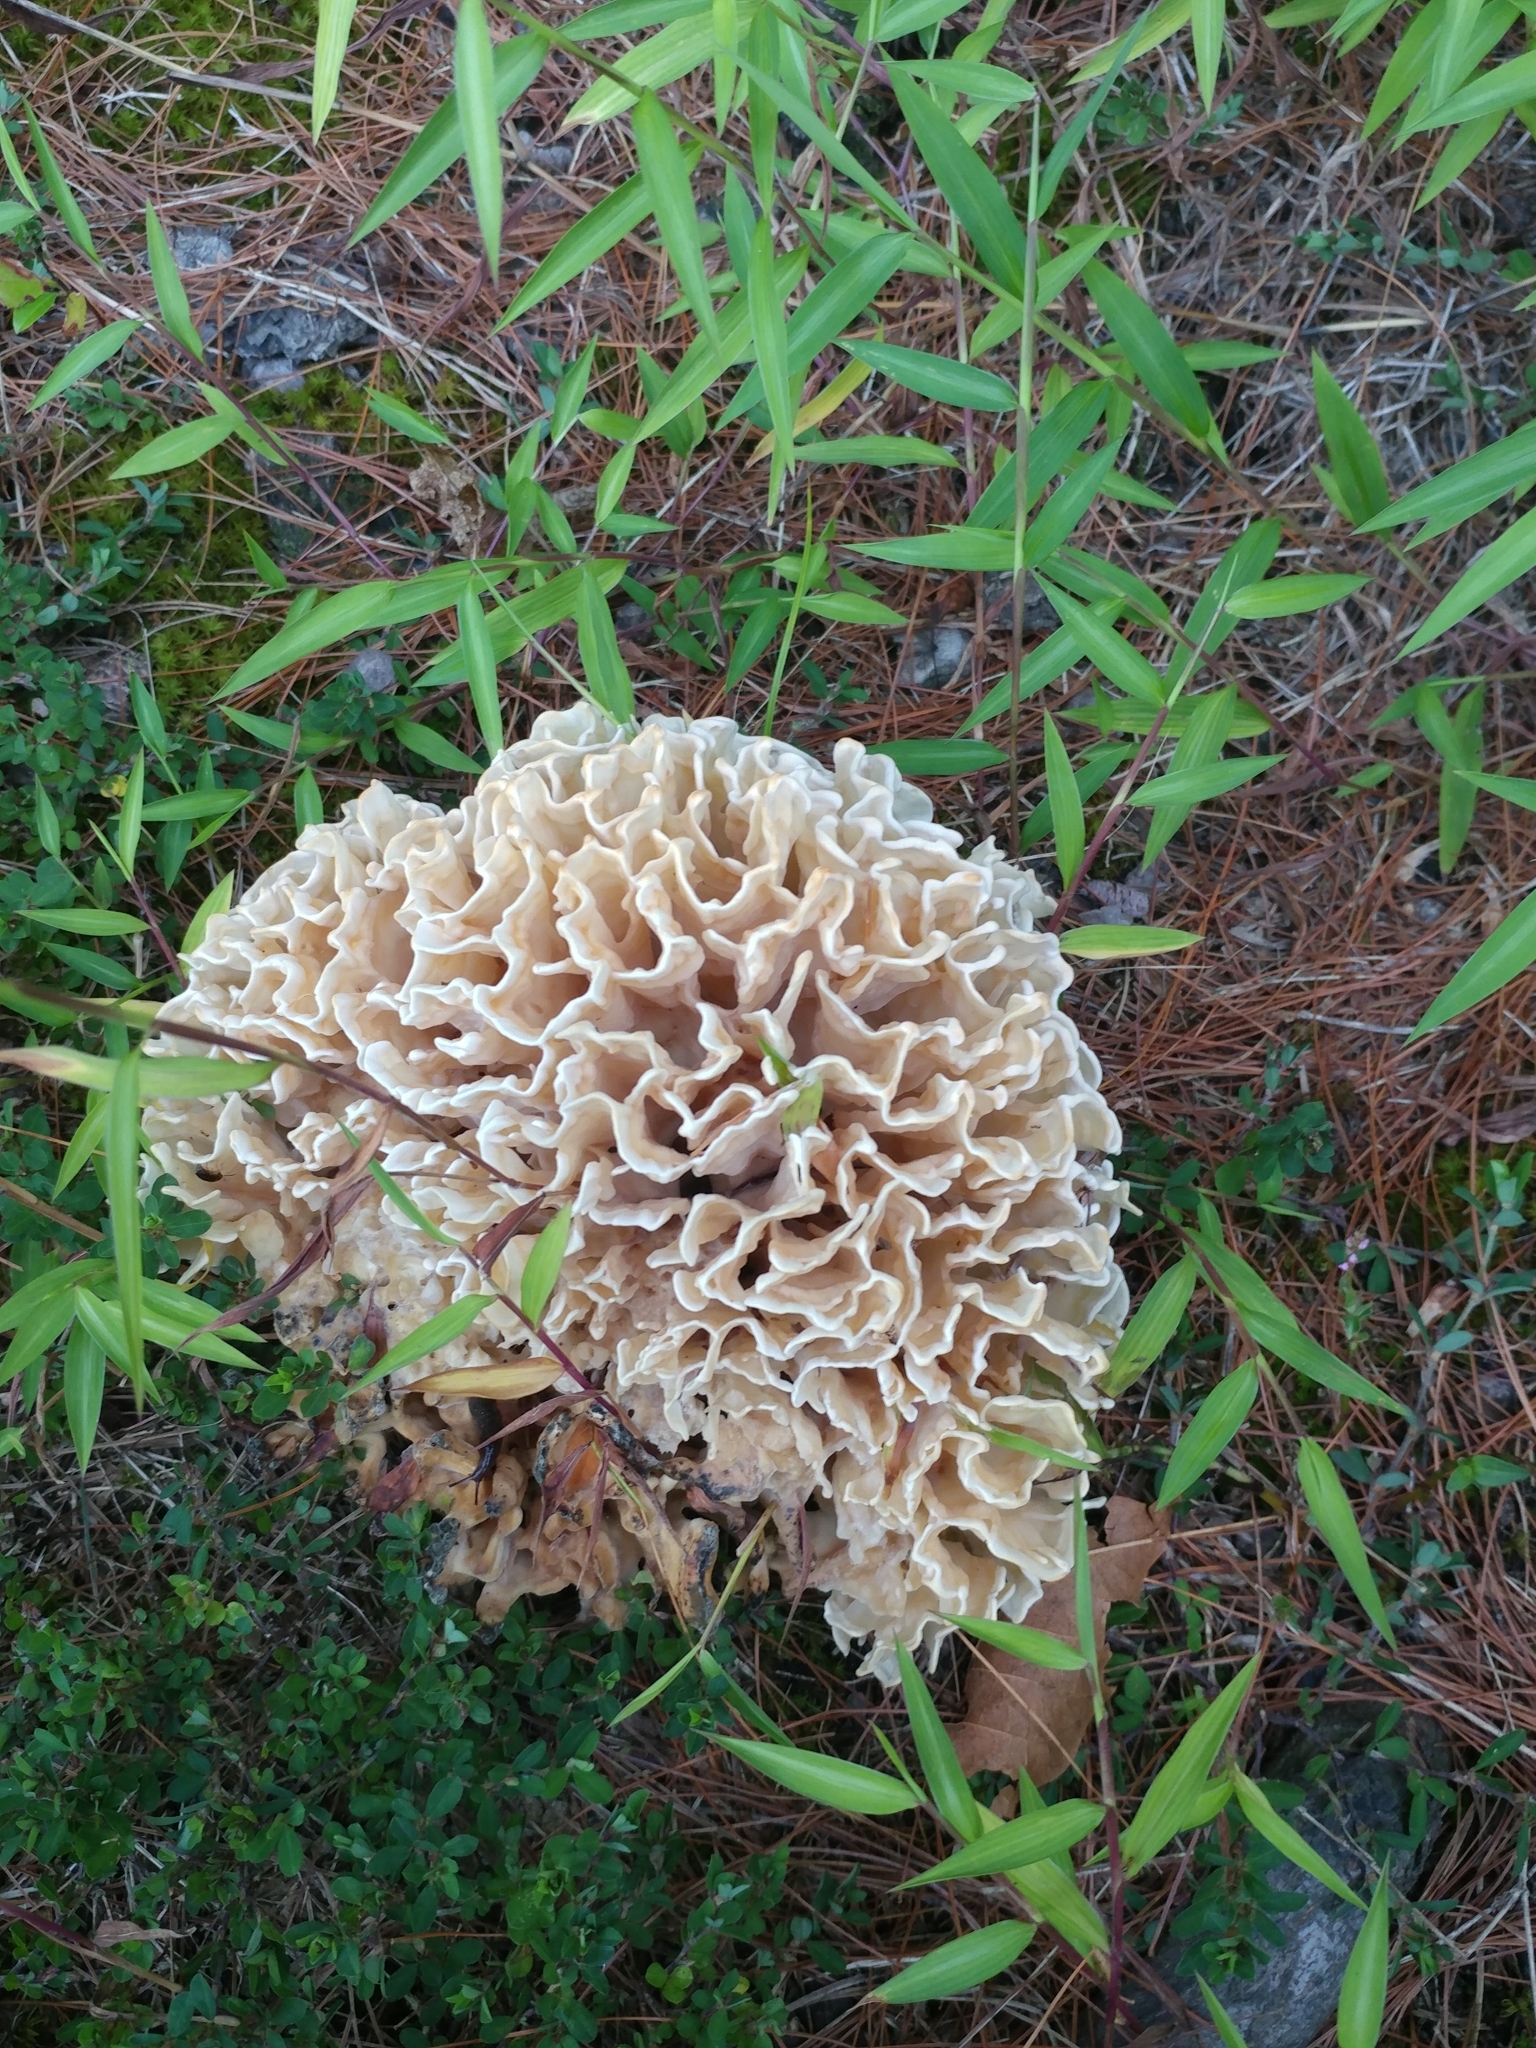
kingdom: Fungi
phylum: Basidiomycota
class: Agaricomycetes
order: Polyporales
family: Sparassidaceae
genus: Sparassis
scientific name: Sparassis spathulata
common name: Eastern cauliflower mushroom
